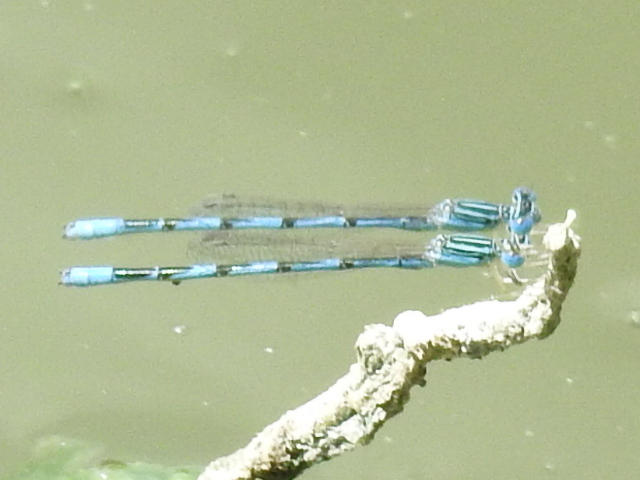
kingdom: Animalia
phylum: Arthropoda
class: Insecta
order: Odonata
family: Coenagrionidae
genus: Enallagma
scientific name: Enallagma basidens
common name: Double-striped bluet
